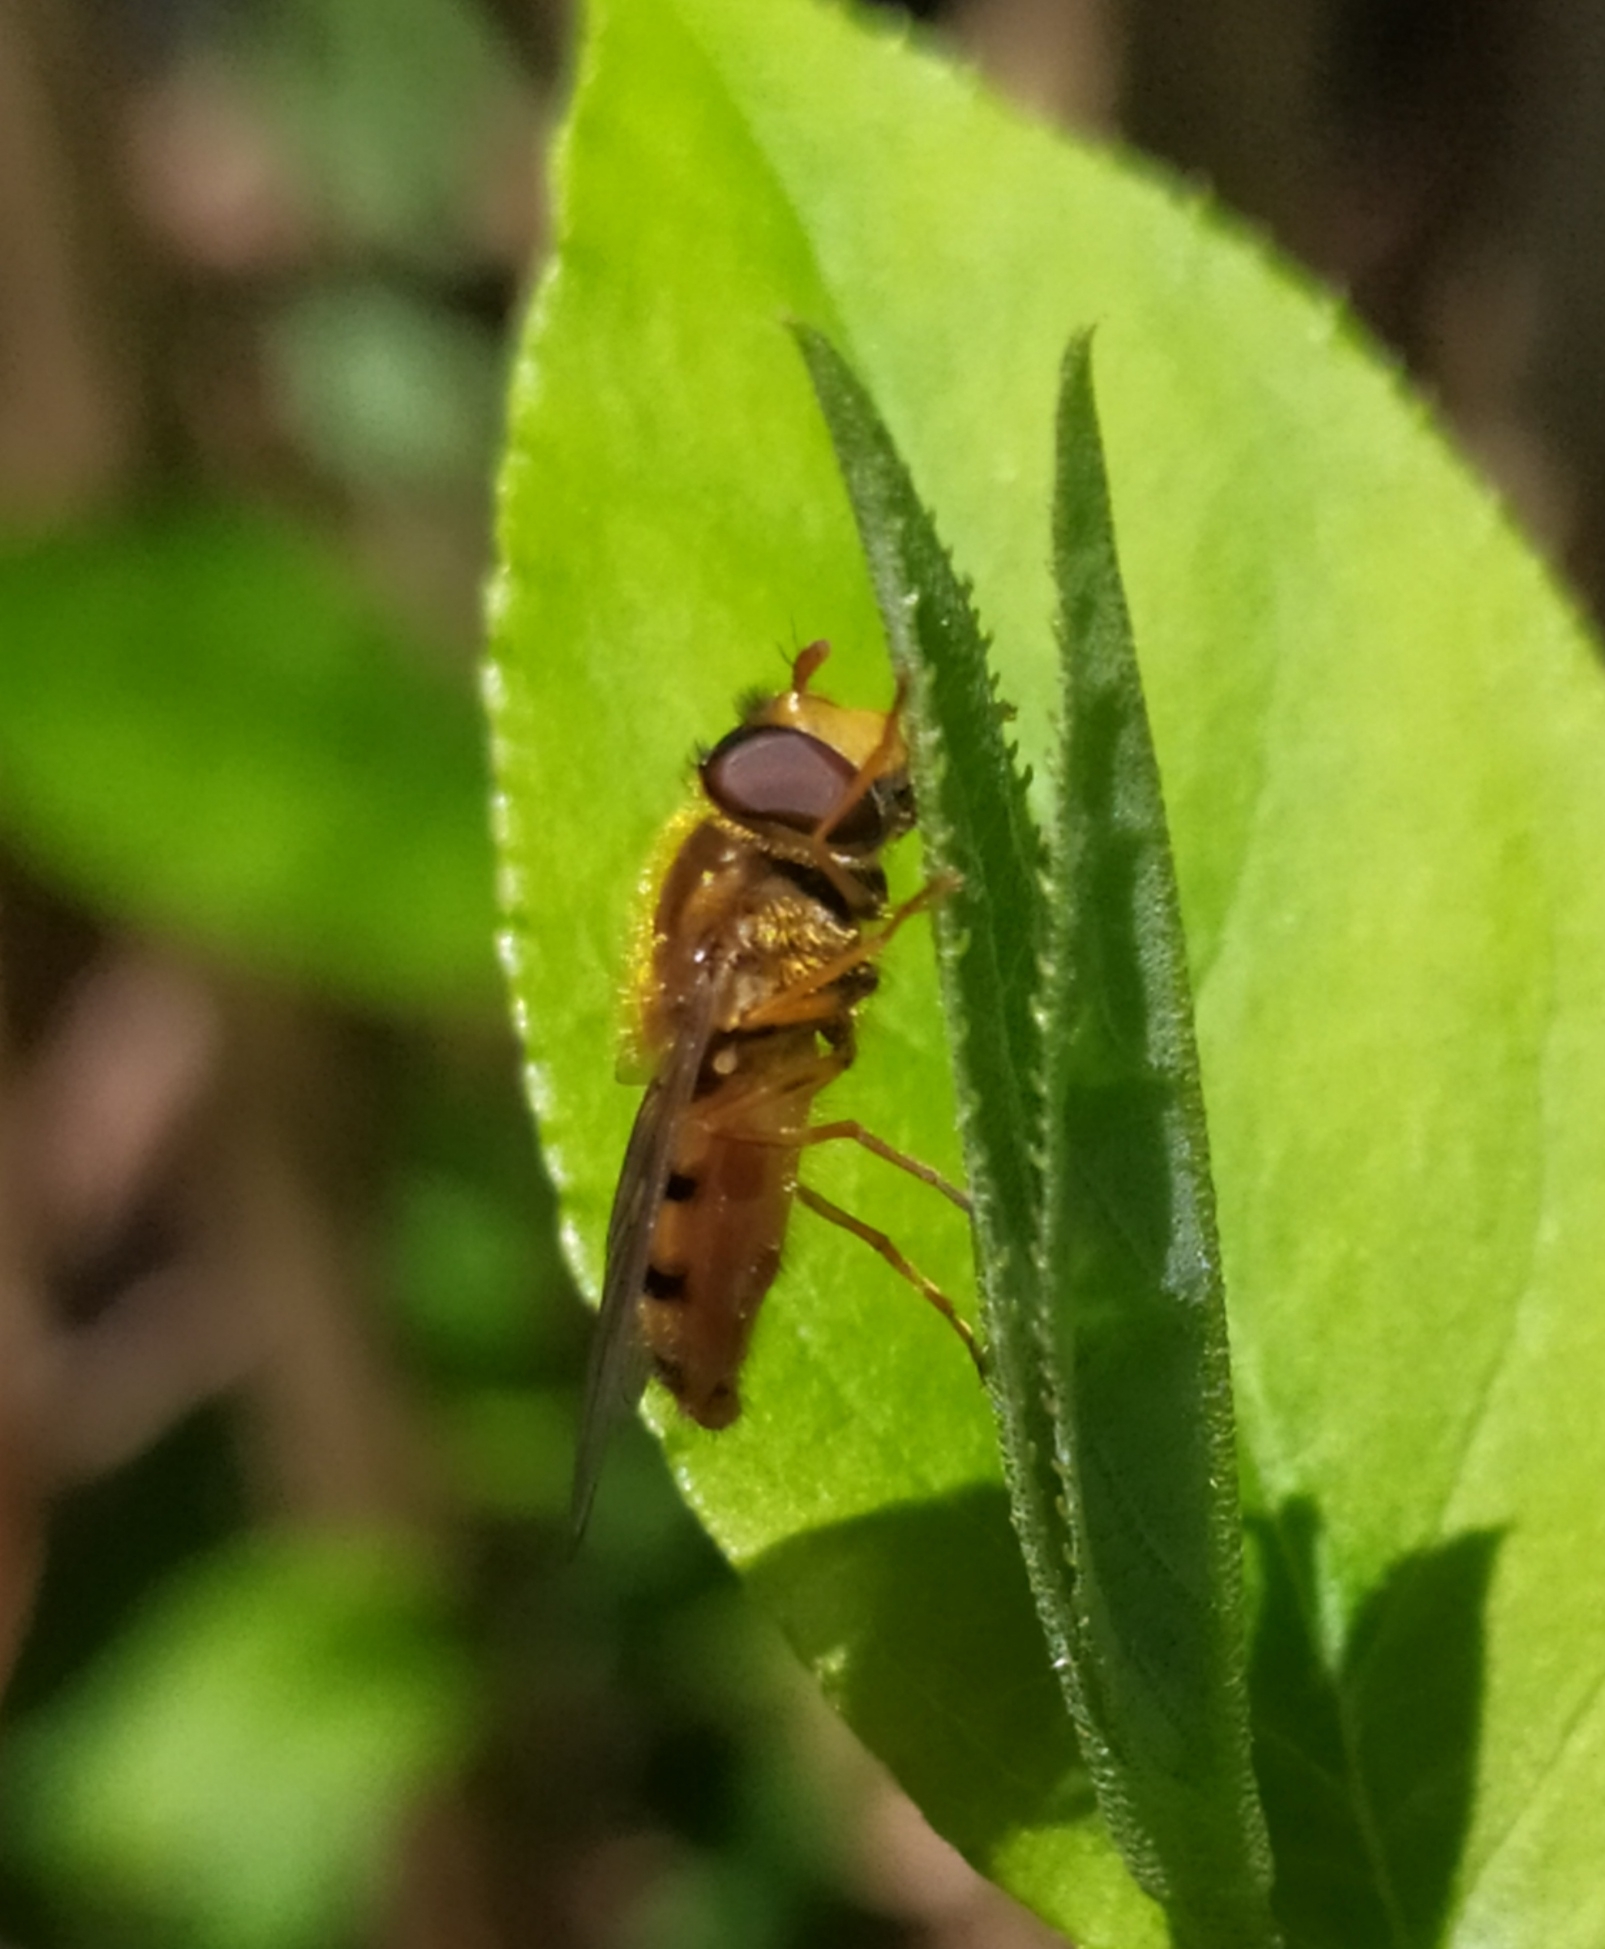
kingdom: Animalia
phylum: Arthropoda
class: Insecta
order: Diptera
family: Syrphidae
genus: Epistrophe
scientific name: Epistrophe melanostoma
